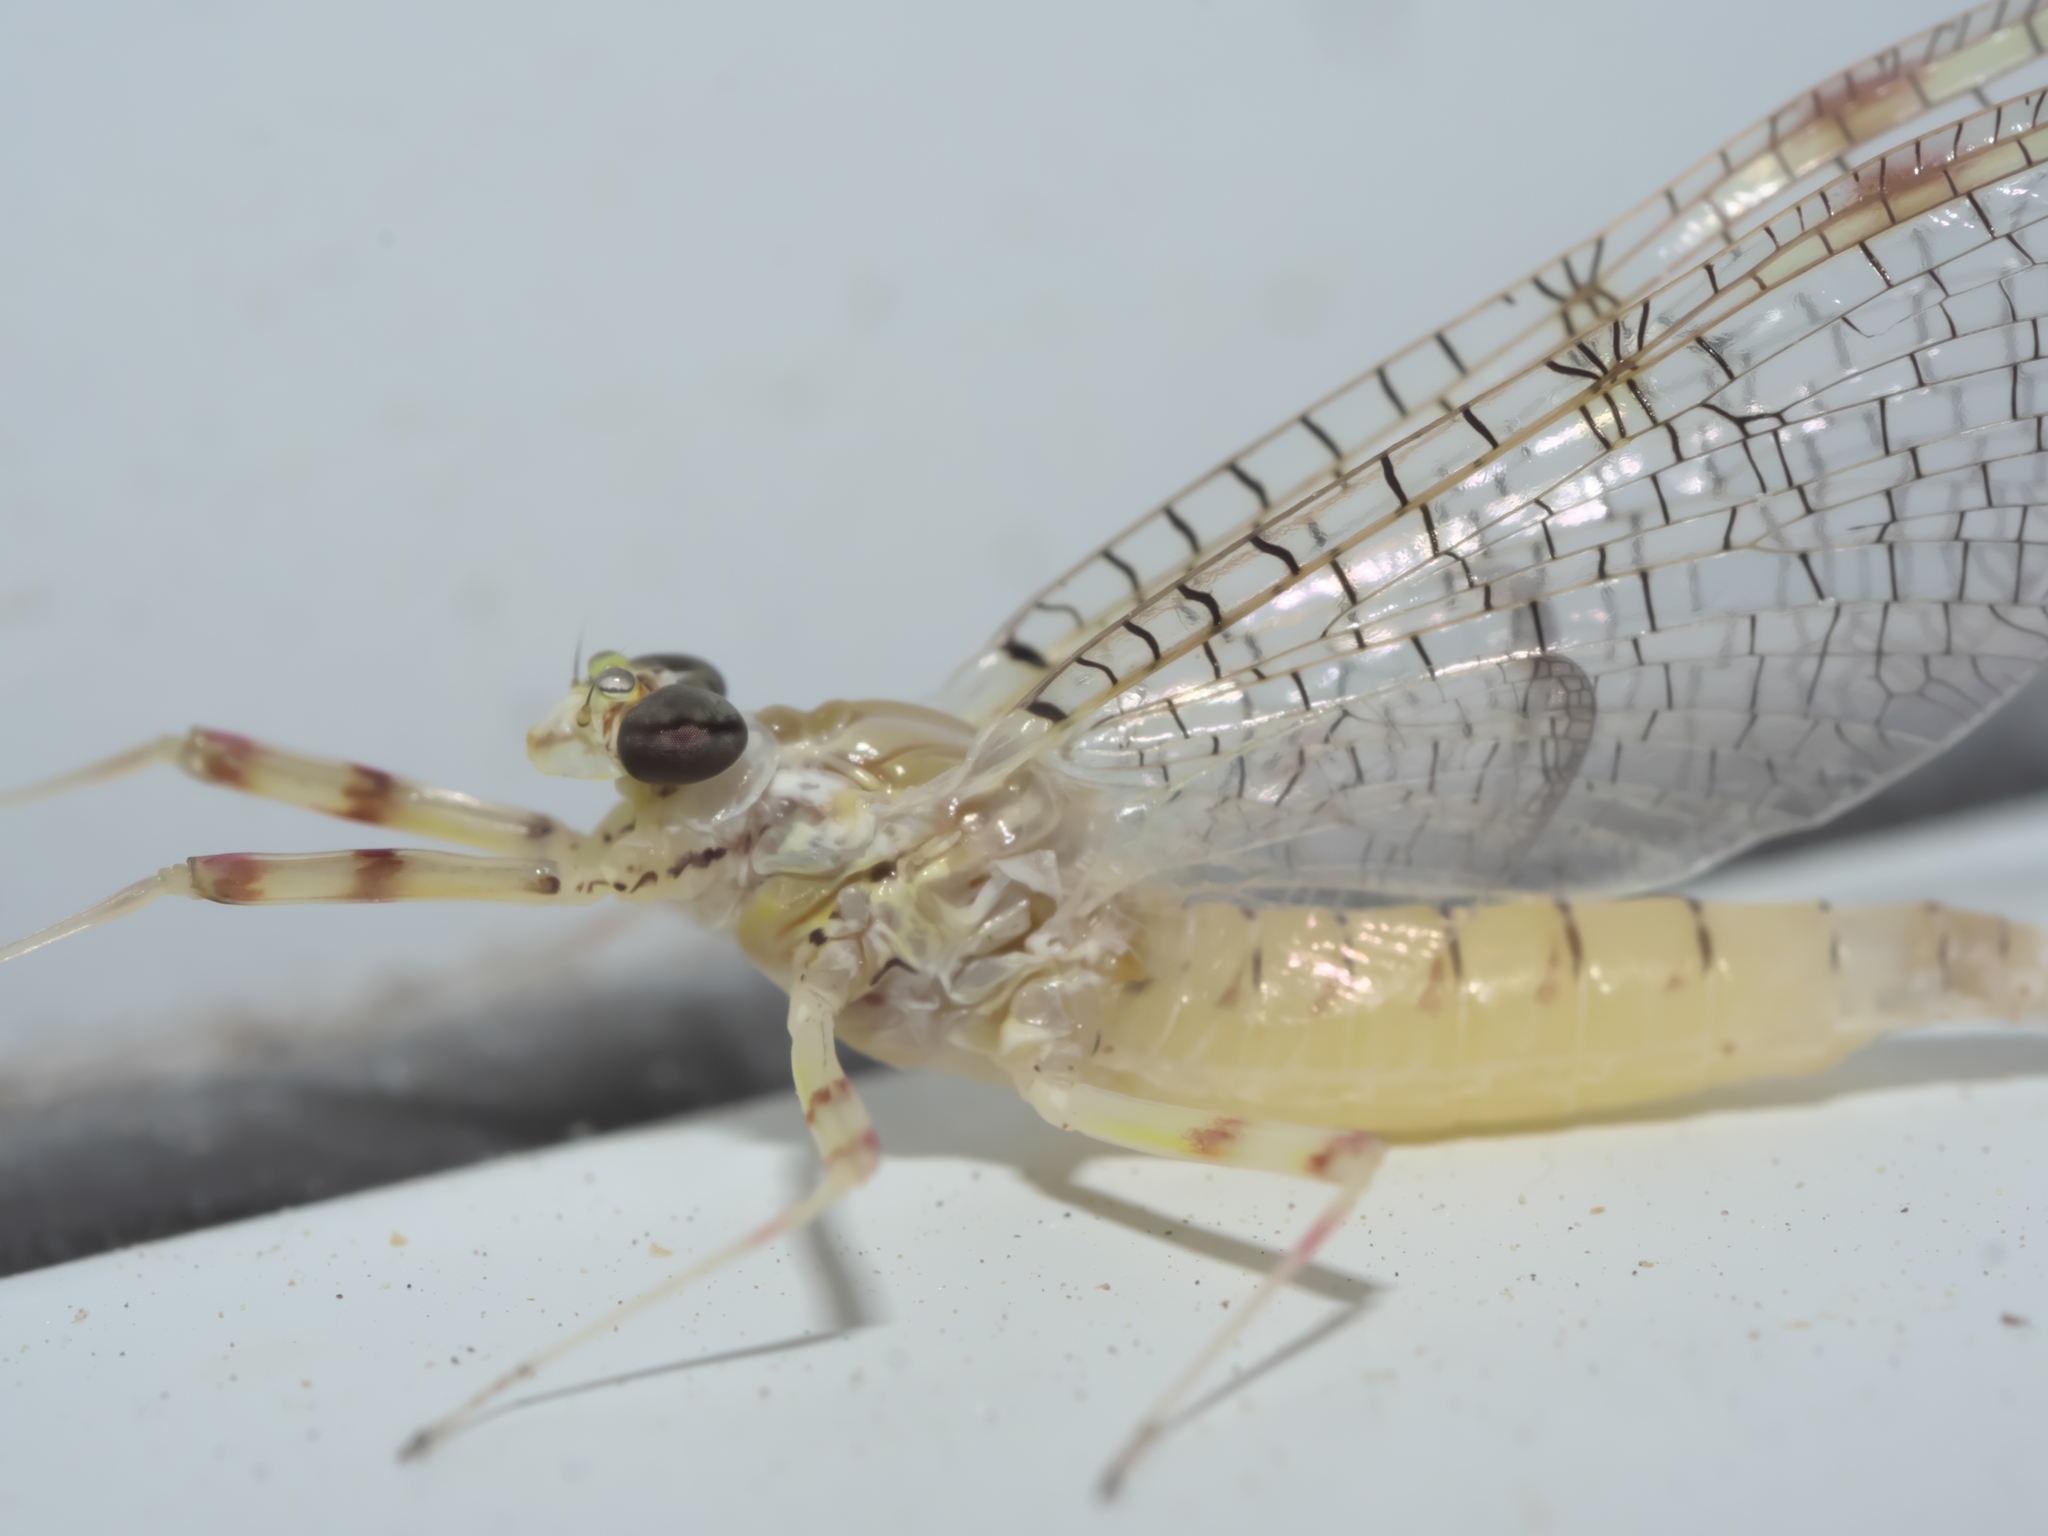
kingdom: Animalia
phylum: Arthropoda
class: Insecta
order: Ephemeroptera
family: Heptageniidae
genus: Stenonema
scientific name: Stenonema femoratum
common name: Dark cahill
